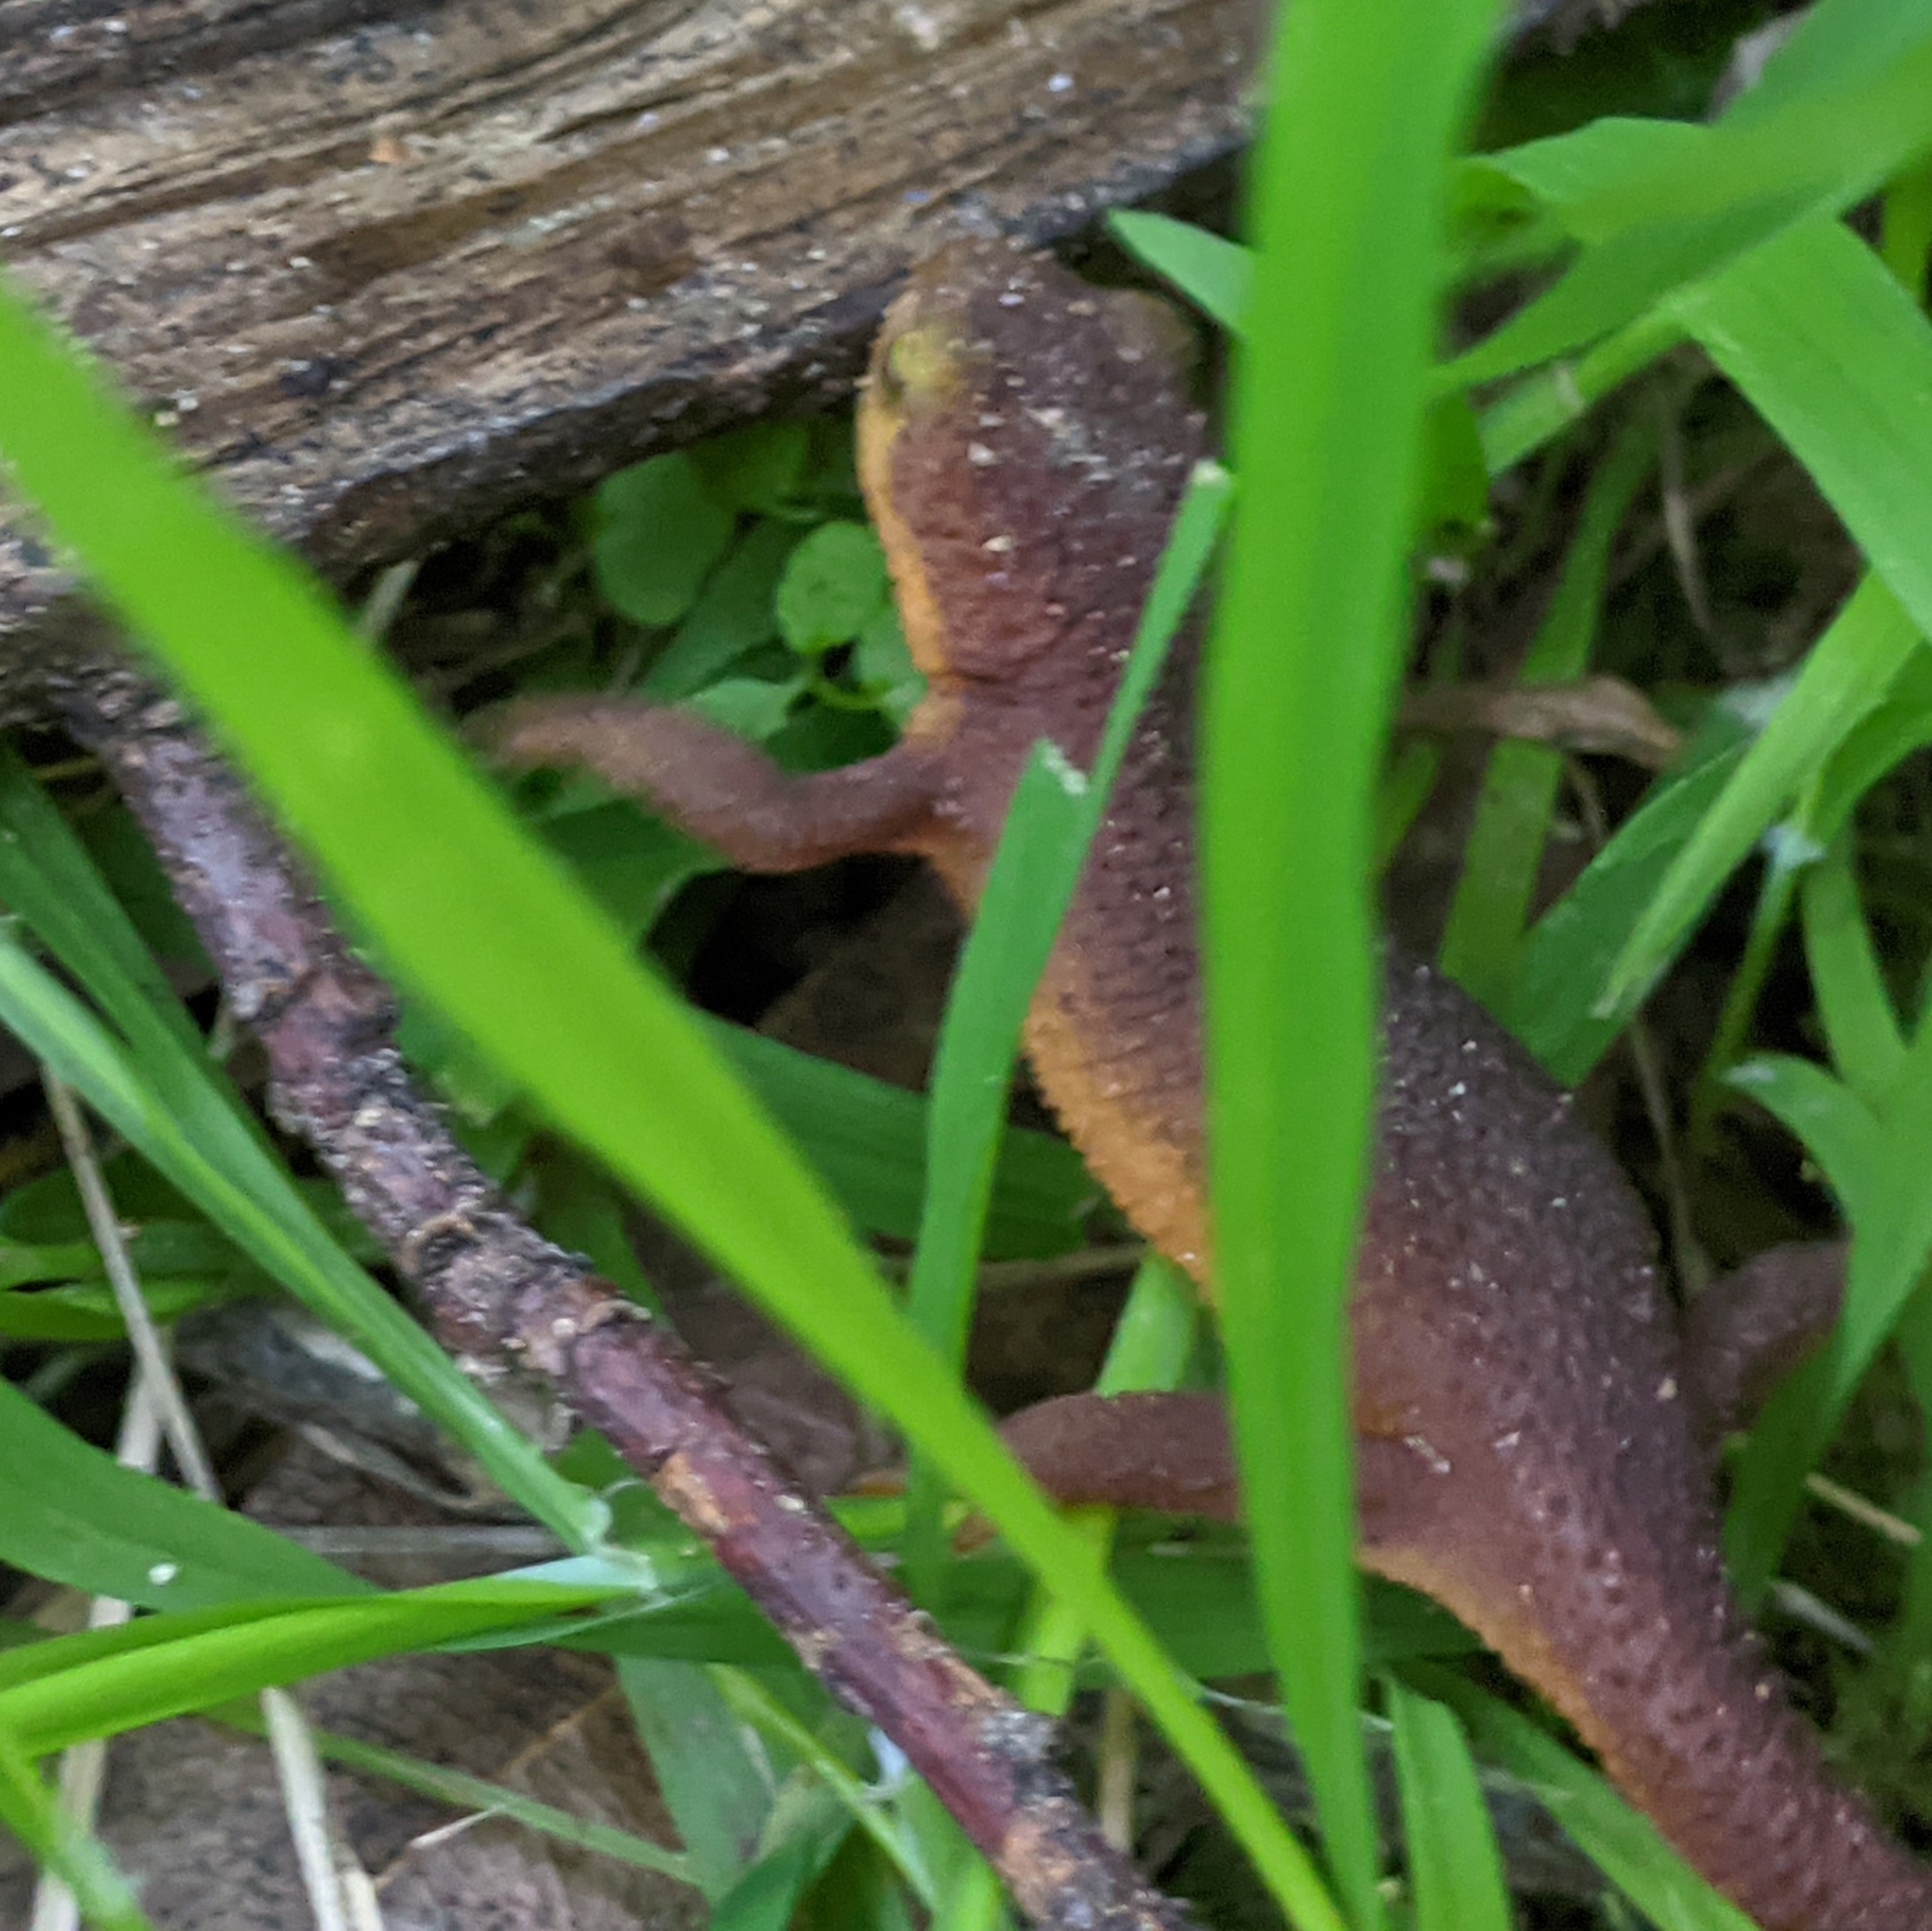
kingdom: Animalia
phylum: Chordata
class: Amphibia
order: Caudata
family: Salamandridae
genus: Taricha
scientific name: Taricha torosa
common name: California newt
